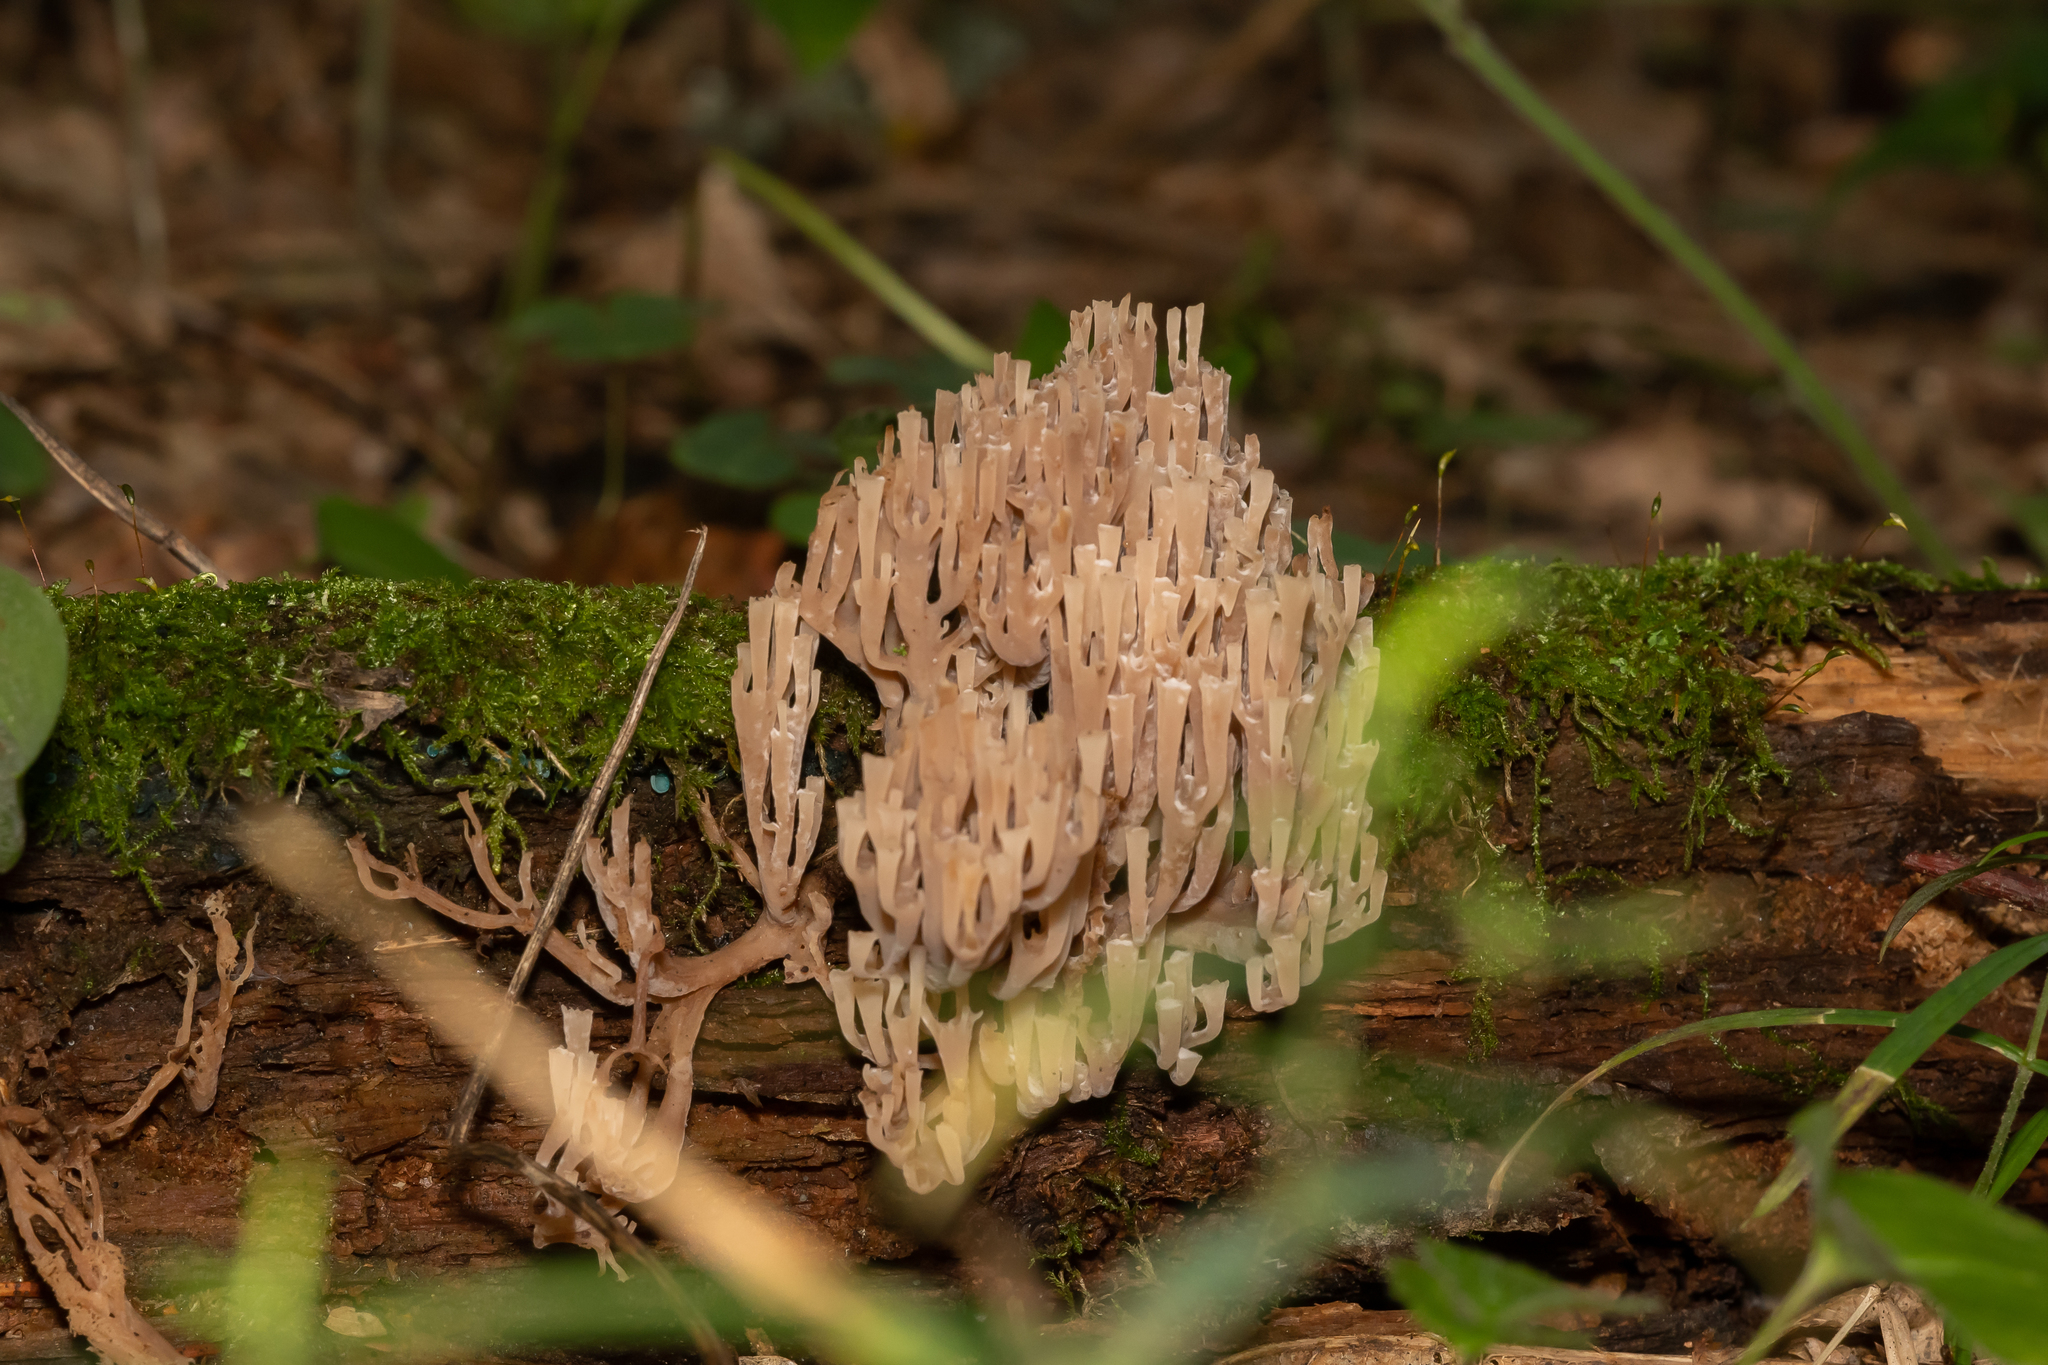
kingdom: Fungi
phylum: Basidiomycota
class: Agaricomycetes
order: Russulales
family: Auriscalpiaceae
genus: Artomyces
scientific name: Artomyces pyxidatus
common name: Crown-tipped coral fungus
